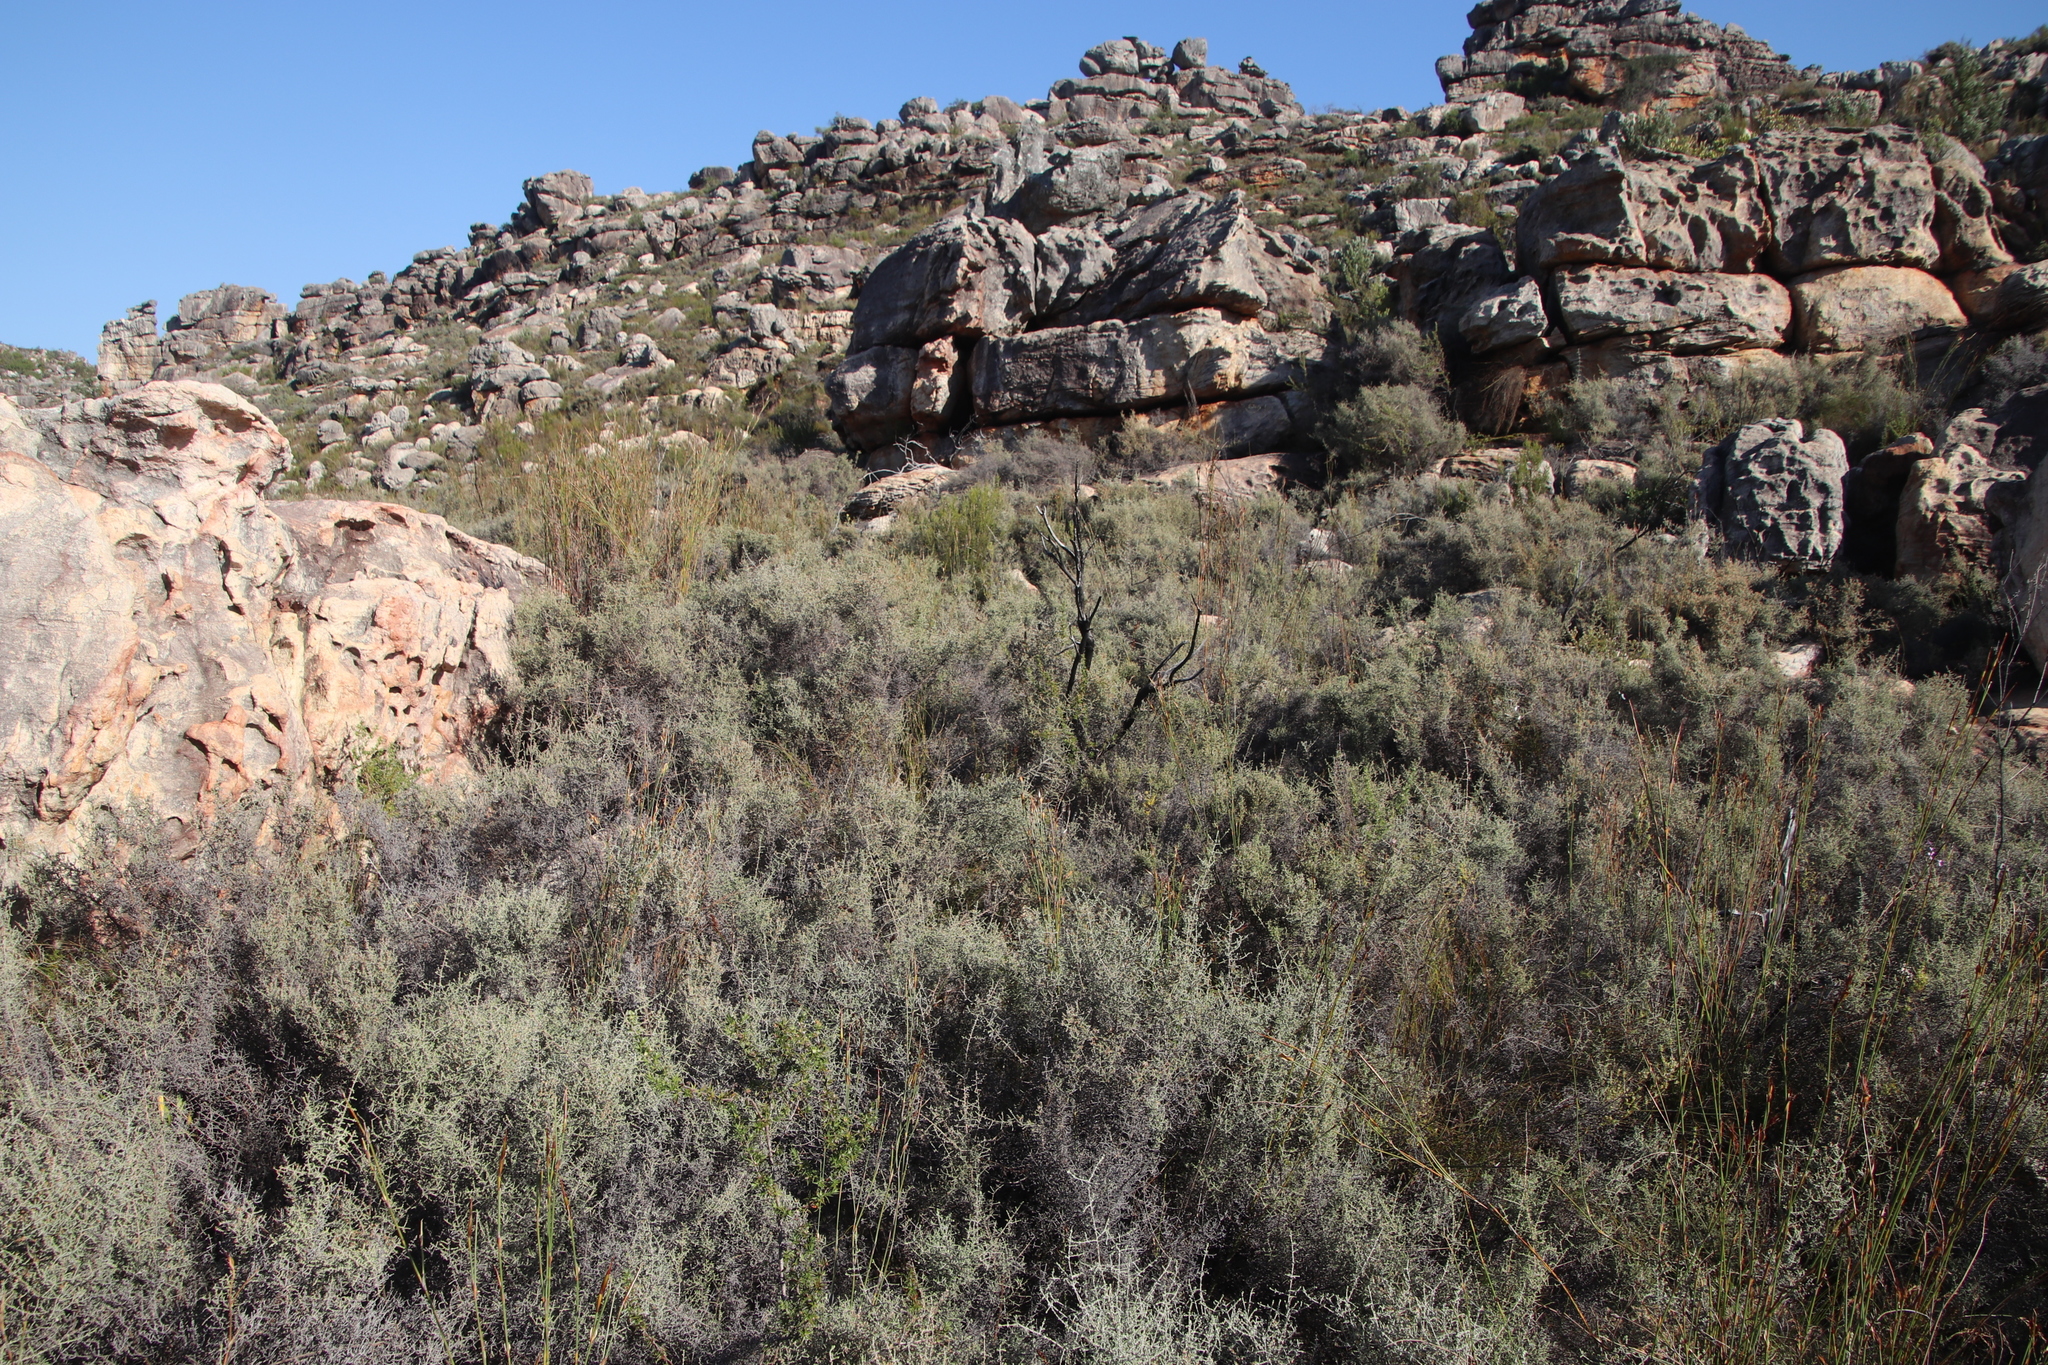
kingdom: Plantae
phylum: Tracheophyta
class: Magnoliopsida
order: Asterales
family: Asteraceae
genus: Seriphium
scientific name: Seriphium plumosum
